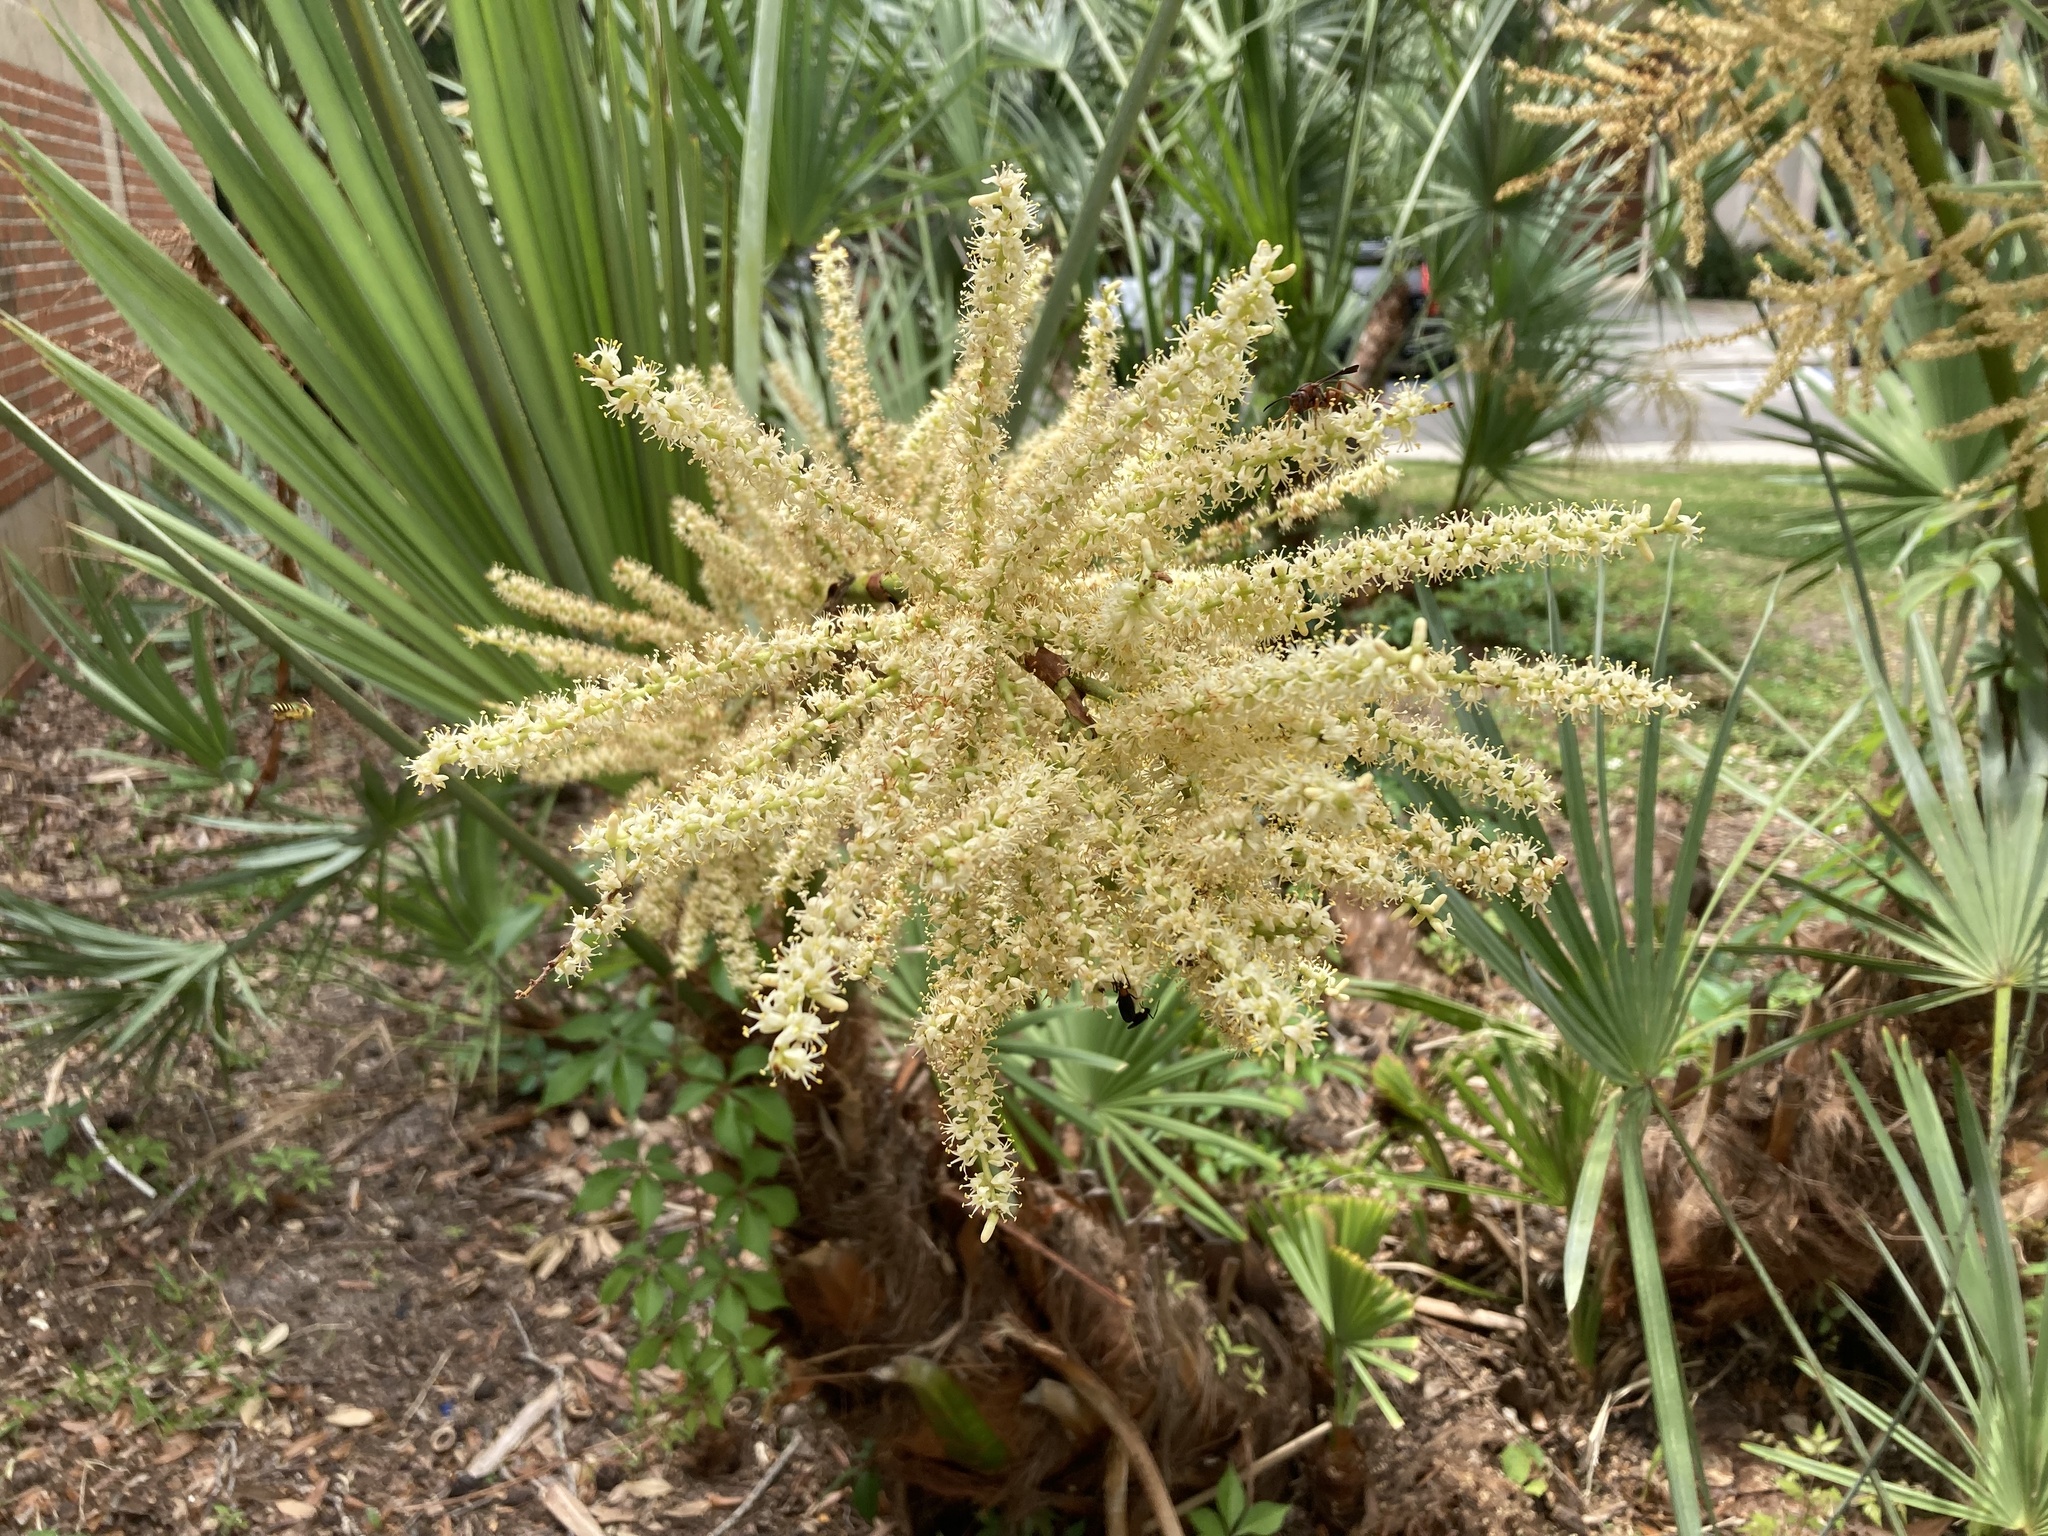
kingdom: Plantae
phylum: Tracheophyta
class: Liliopsida
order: Arecales
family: Arecaceae
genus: Serenoa
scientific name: Serenoa repens
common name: Saw-palmetto
